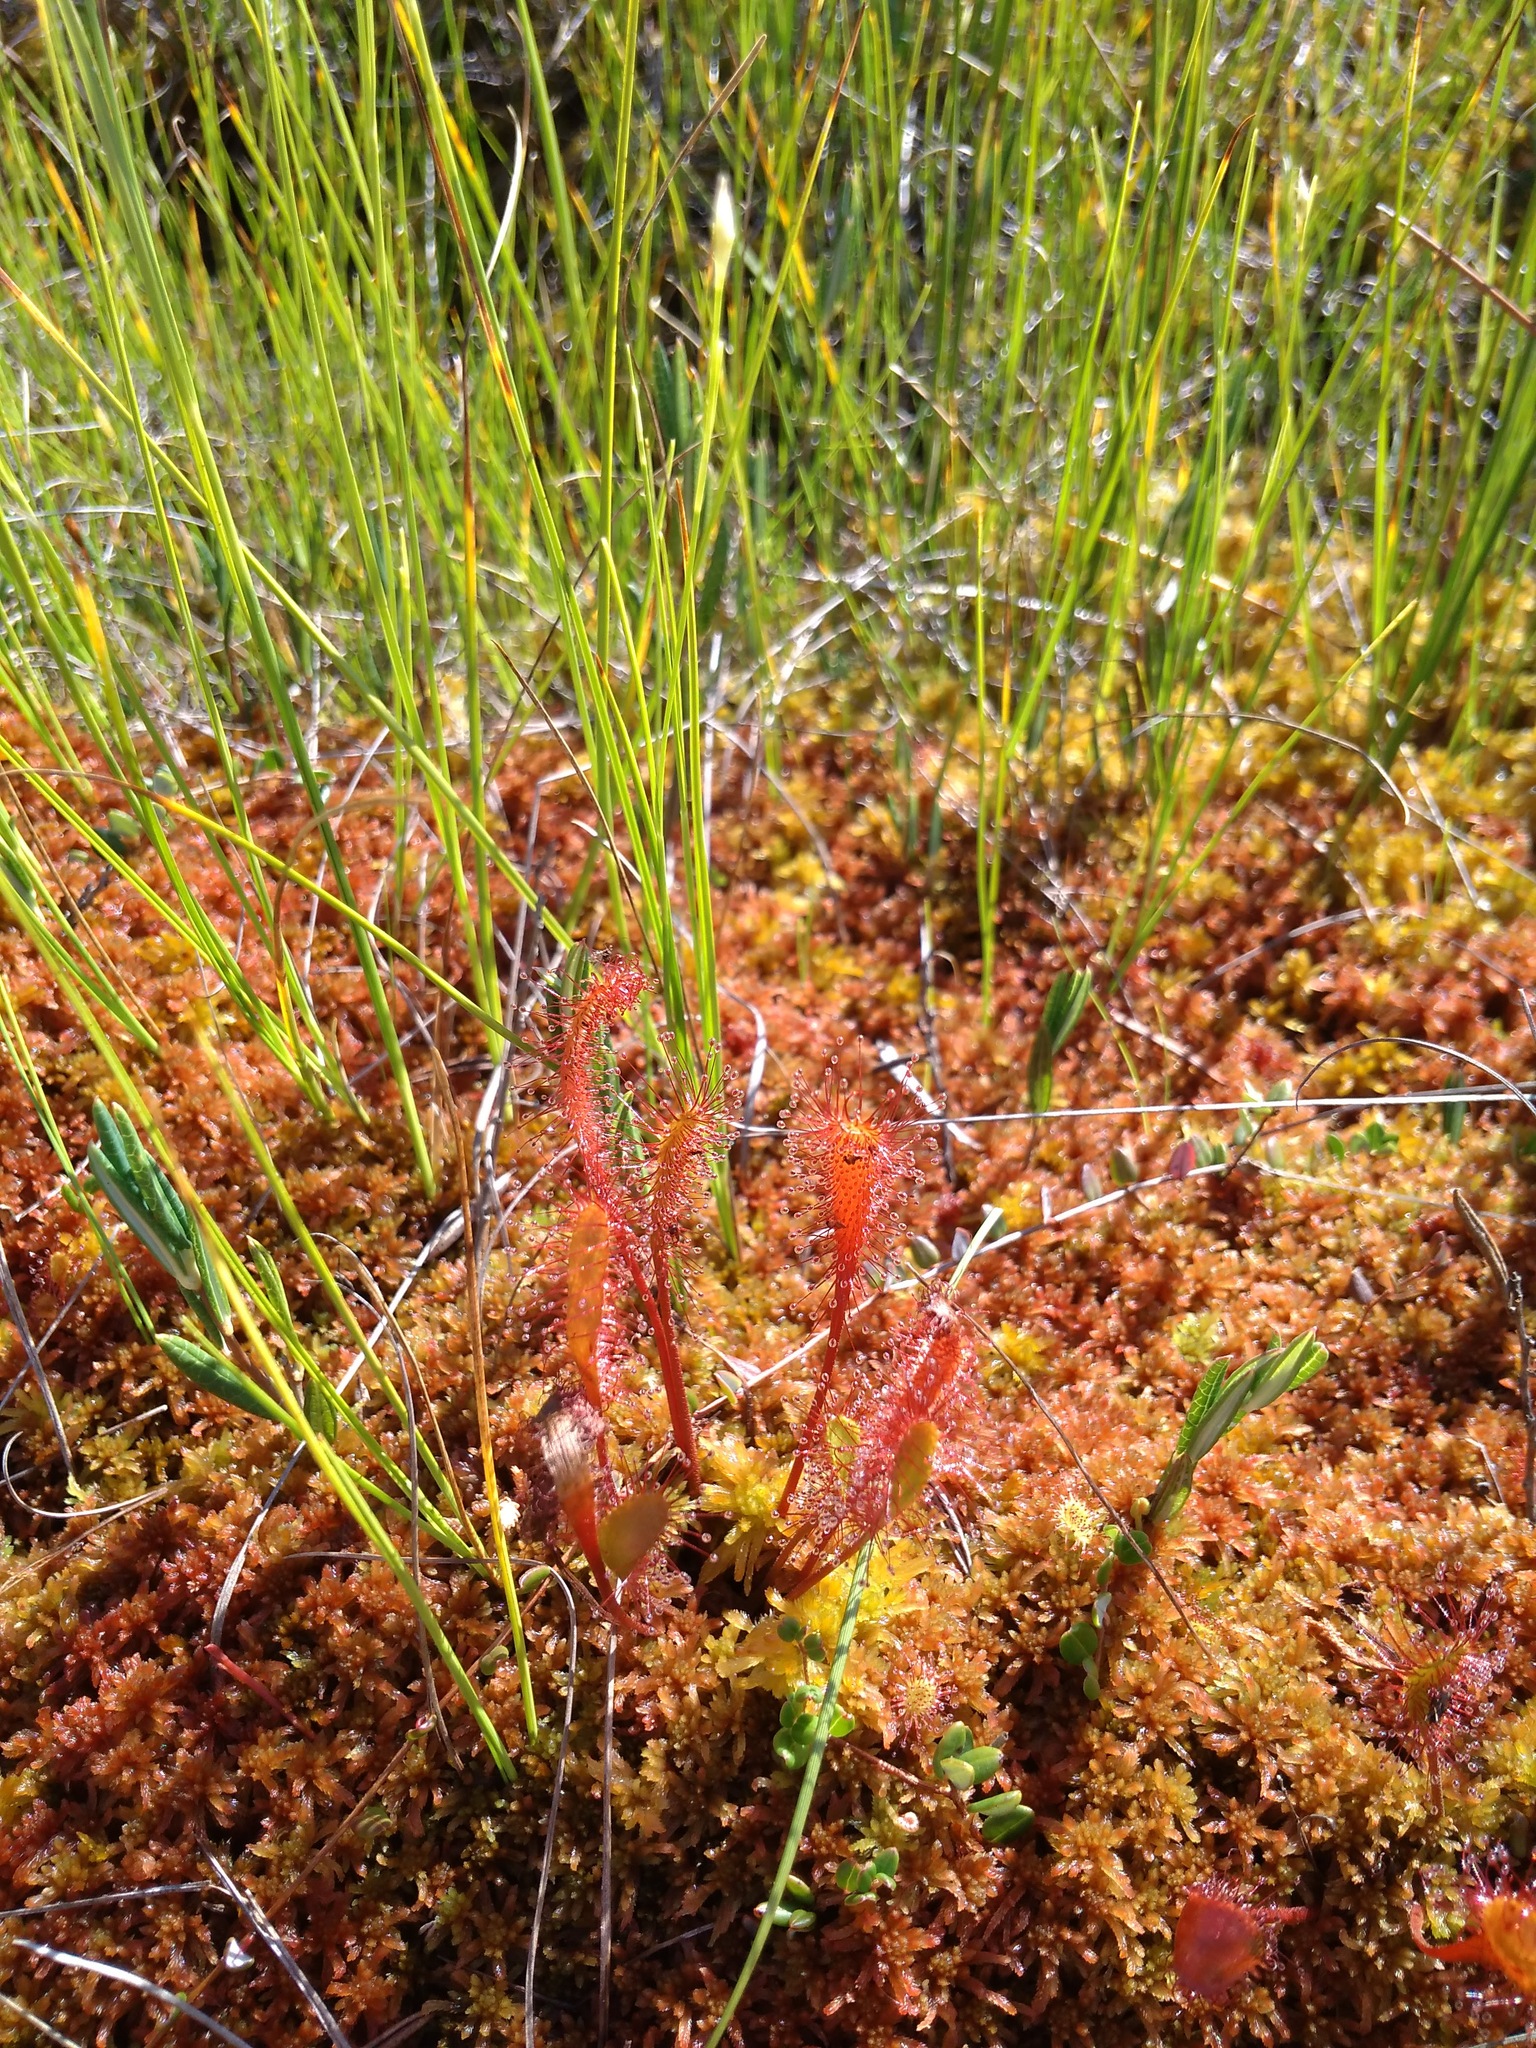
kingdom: Plantae
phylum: Tracheophyta
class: Magnoliopsida
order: Caryophyllales
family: Droseraceae
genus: Drosera
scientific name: Drosera anglica
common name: Great sundew
